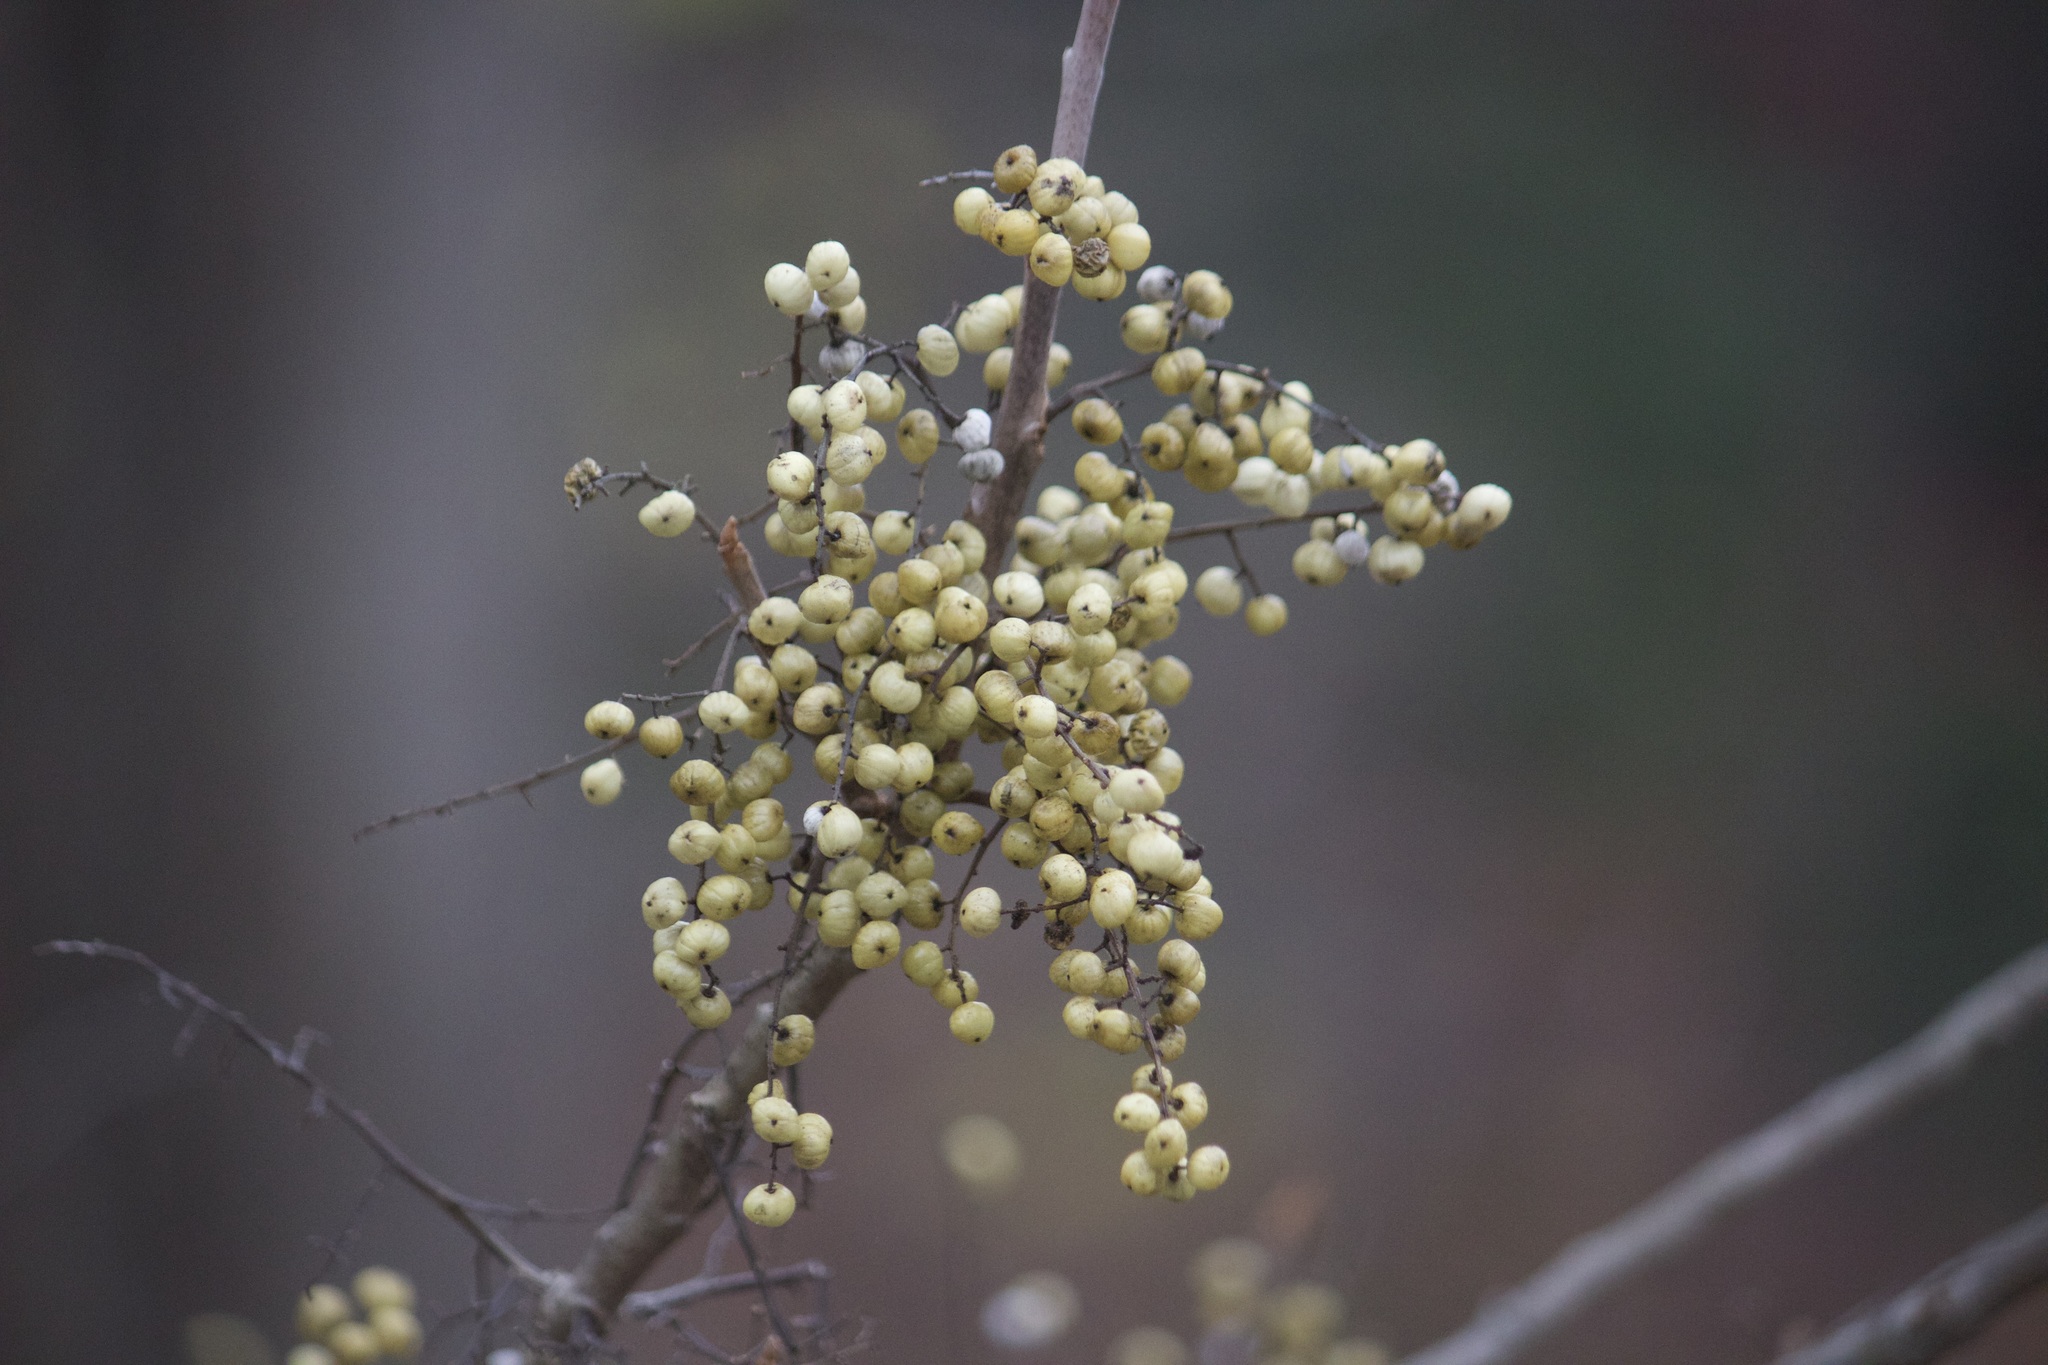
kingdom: Plantae
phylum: Tracheophyta
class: Magnoliopsida
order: Sapindales
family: Anacardiaceae
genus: Toxicodendron
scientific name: Toxicodendron vernix
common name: Poison sumac
